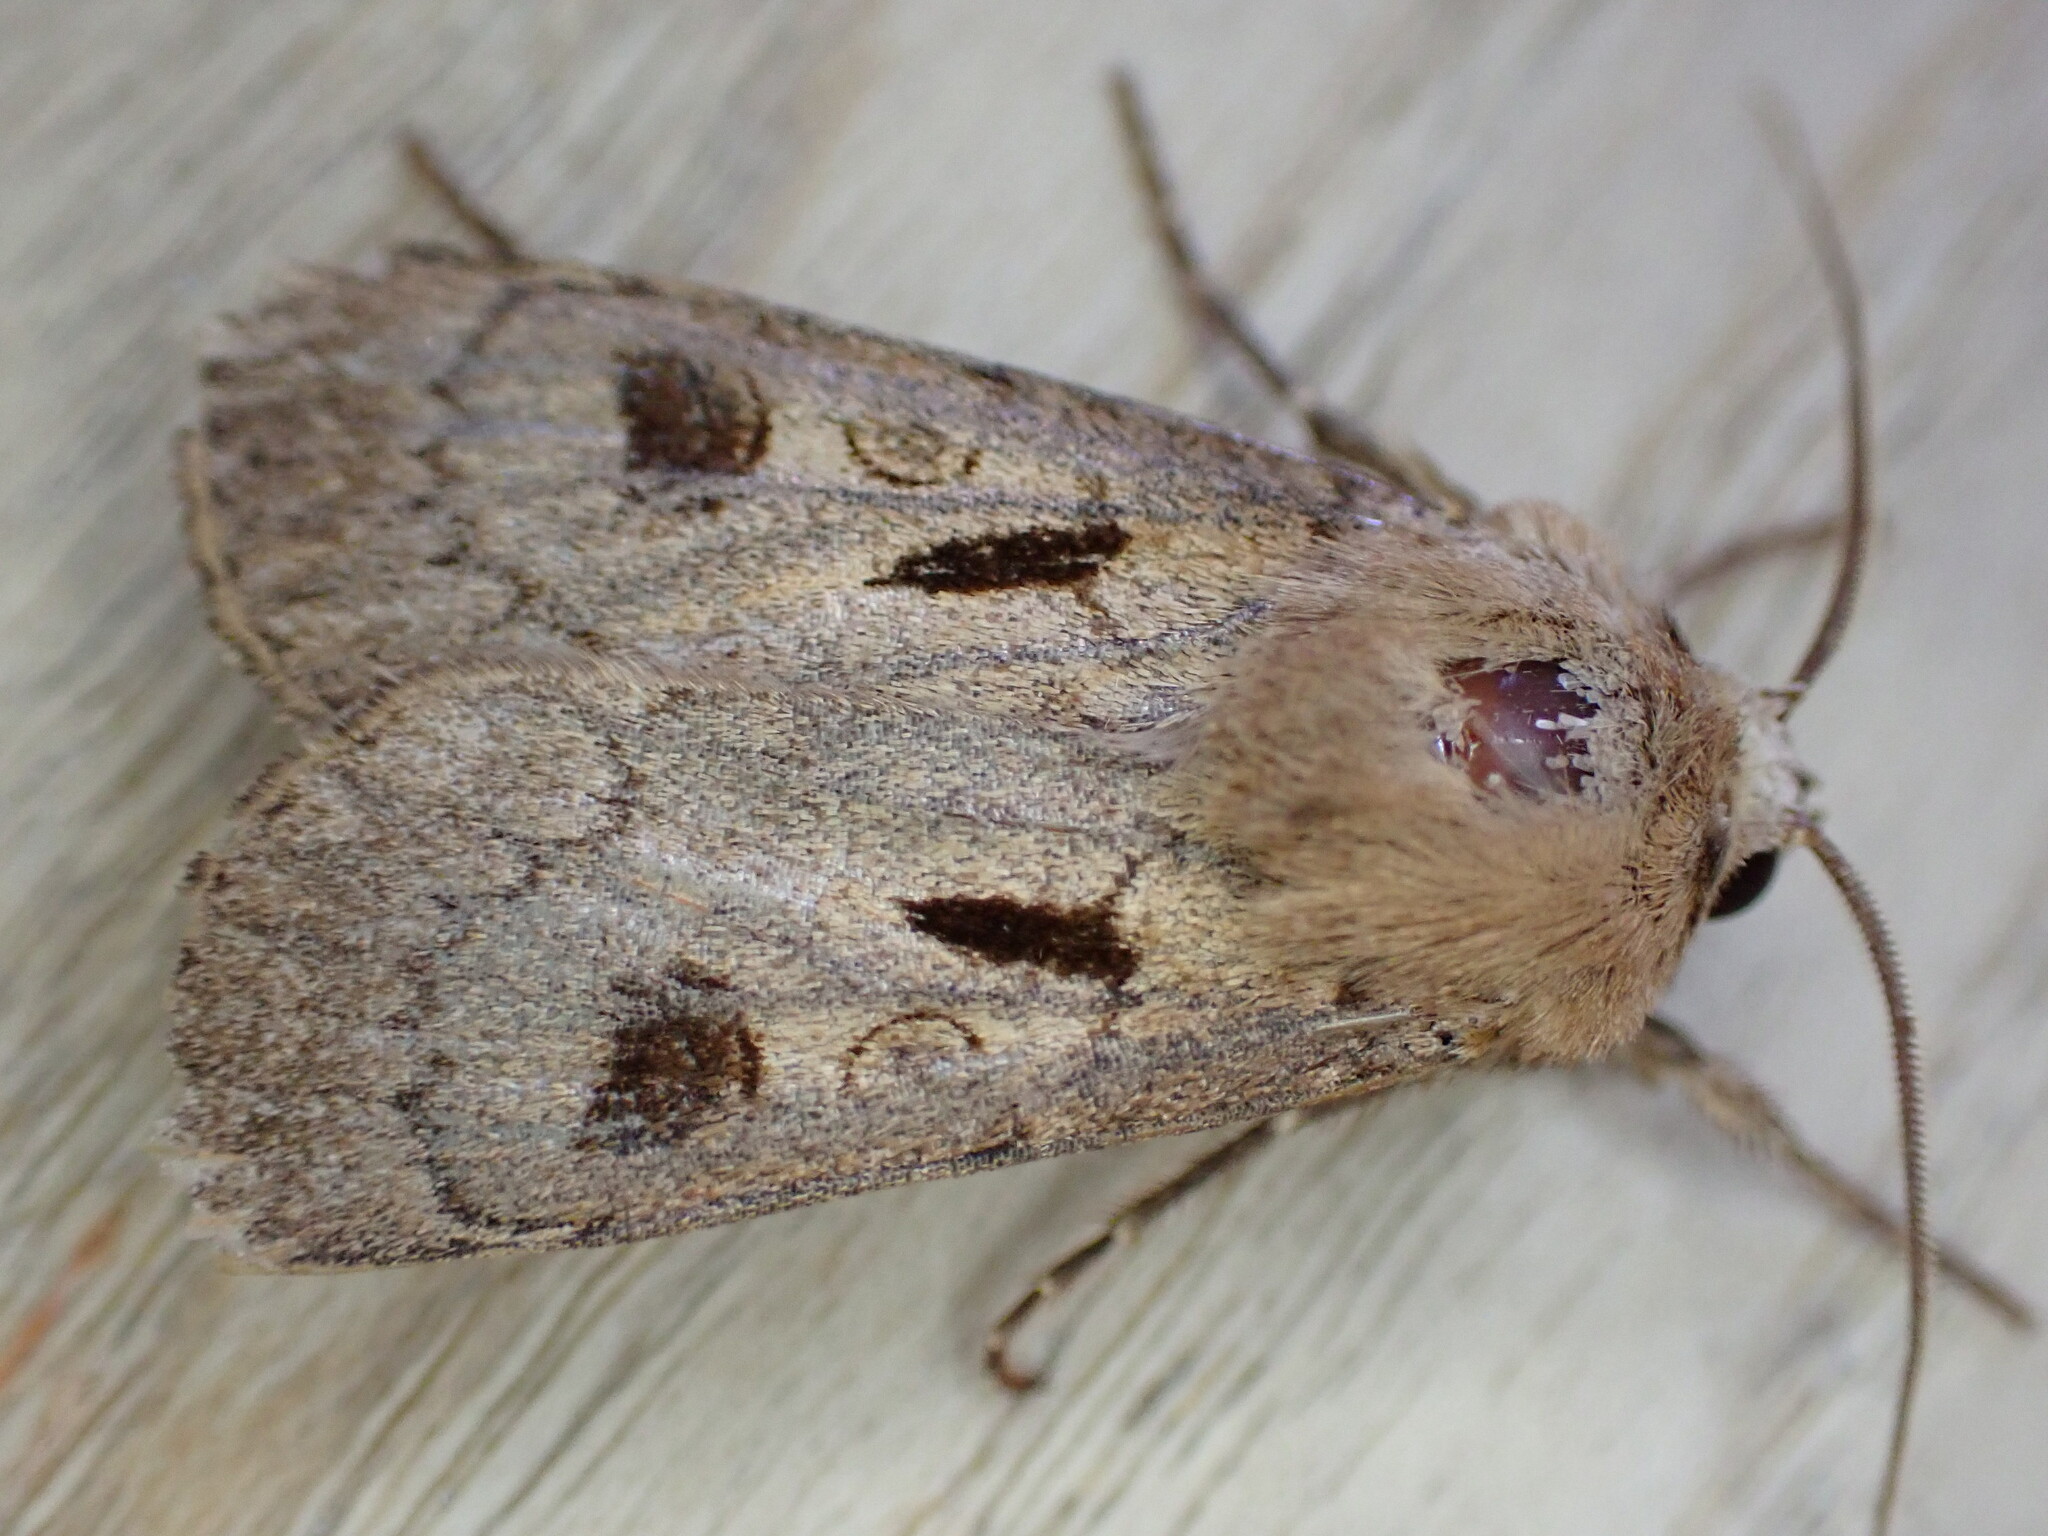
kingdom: Animalia
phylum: Arthropoda
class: Insecta
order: Lepidoptera
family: Noctuidae
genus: Agrotis
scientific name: Agrotis exclamationis
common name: Heart and dart
